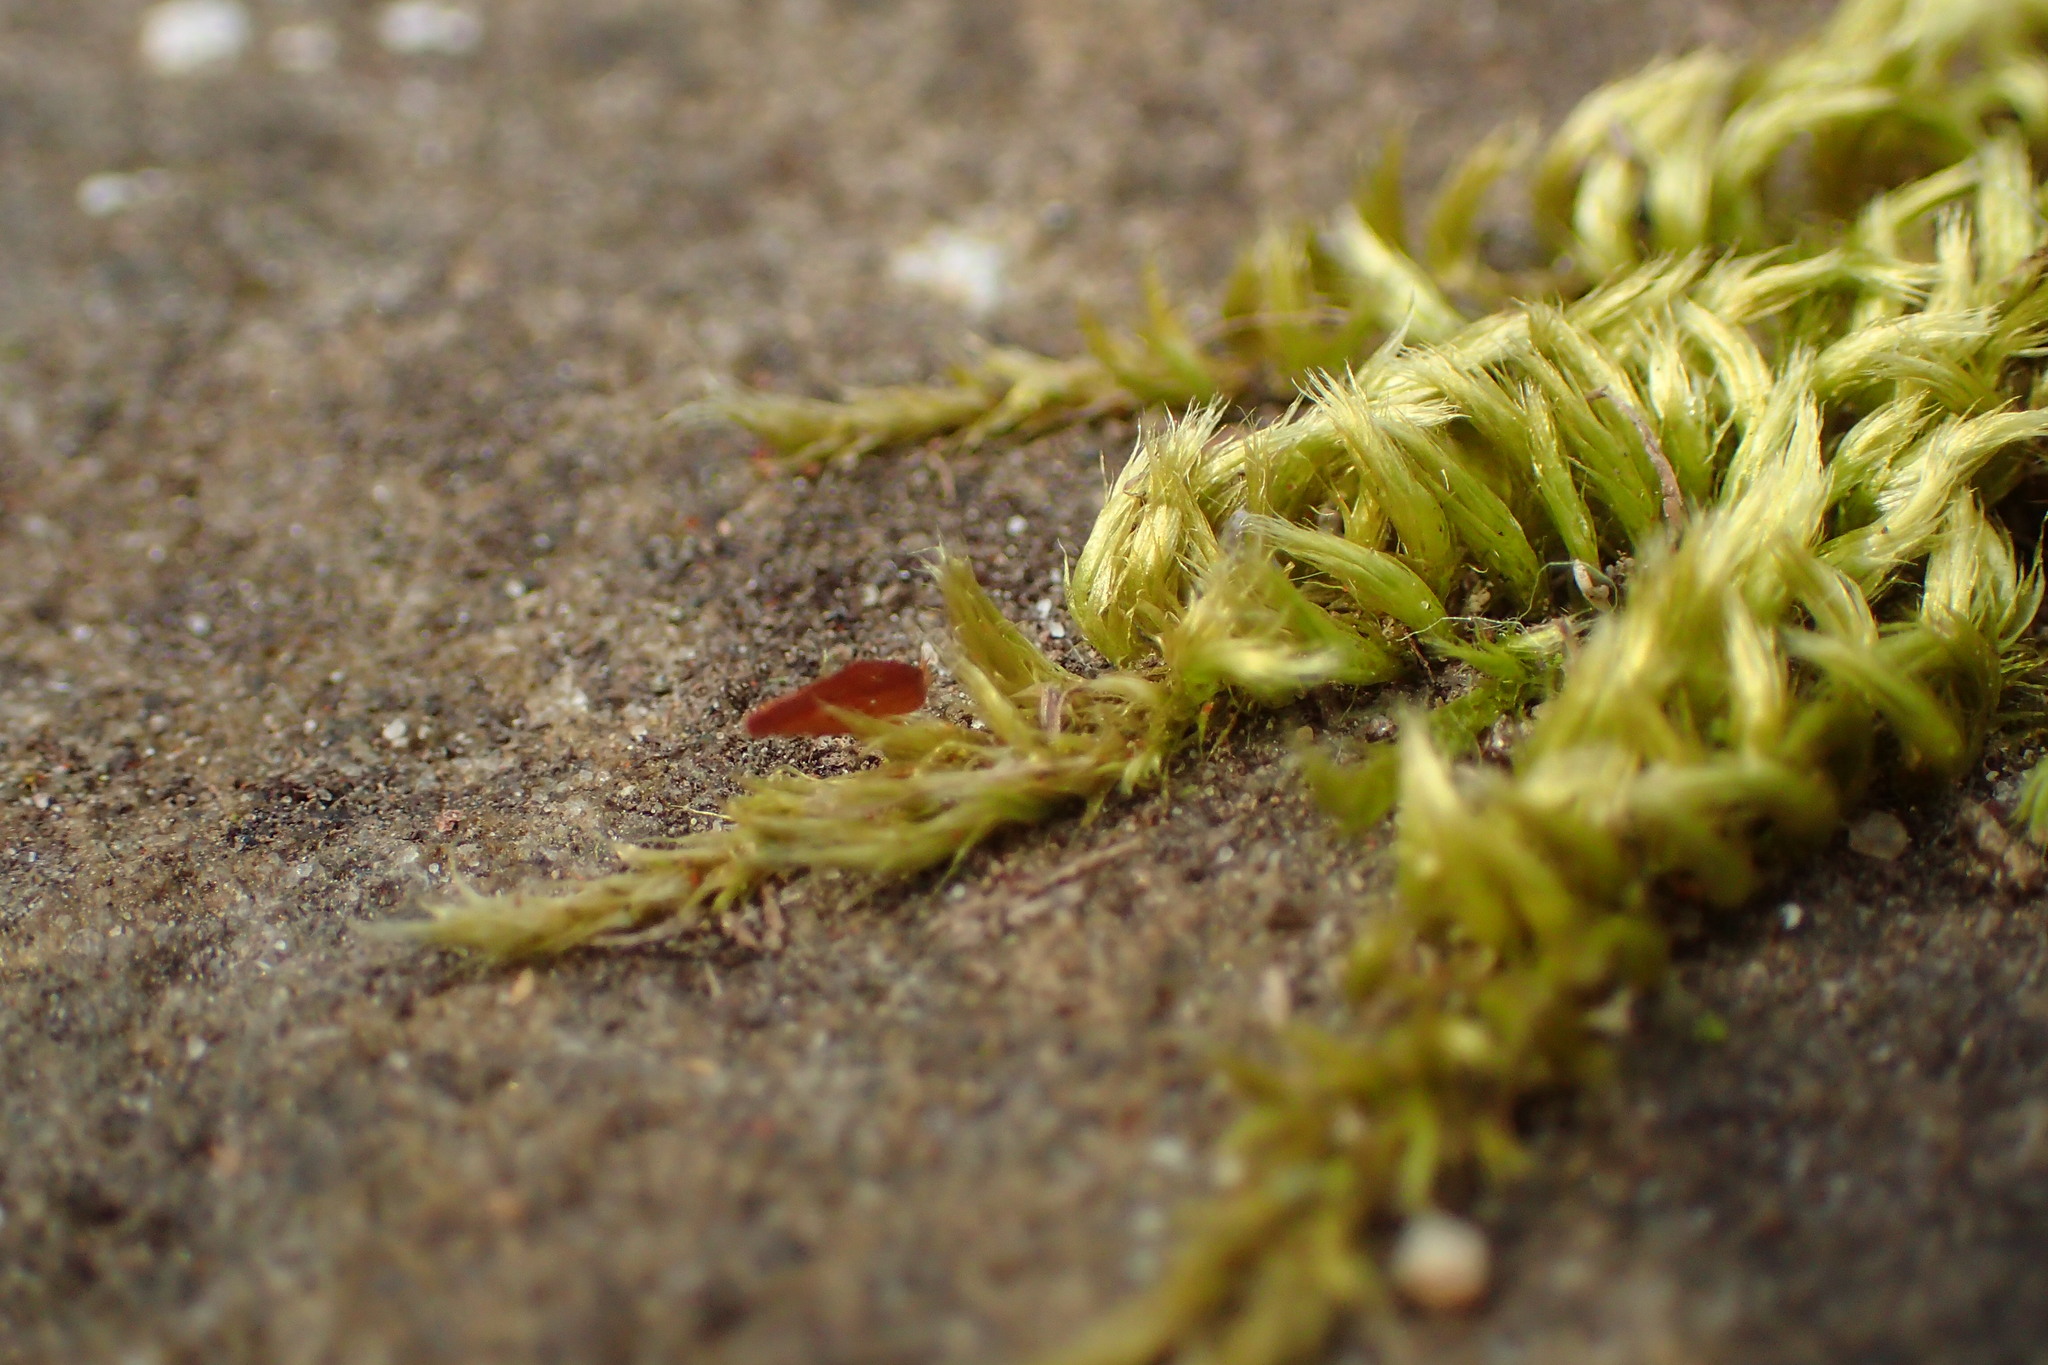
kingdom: Plantae
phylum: Bryophyta
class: Bryopsida
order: Hypnales
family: Brachytheciaceae
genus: Homalothecium
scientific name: Homalothecium sericeum
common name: Silky wall feather-moss
